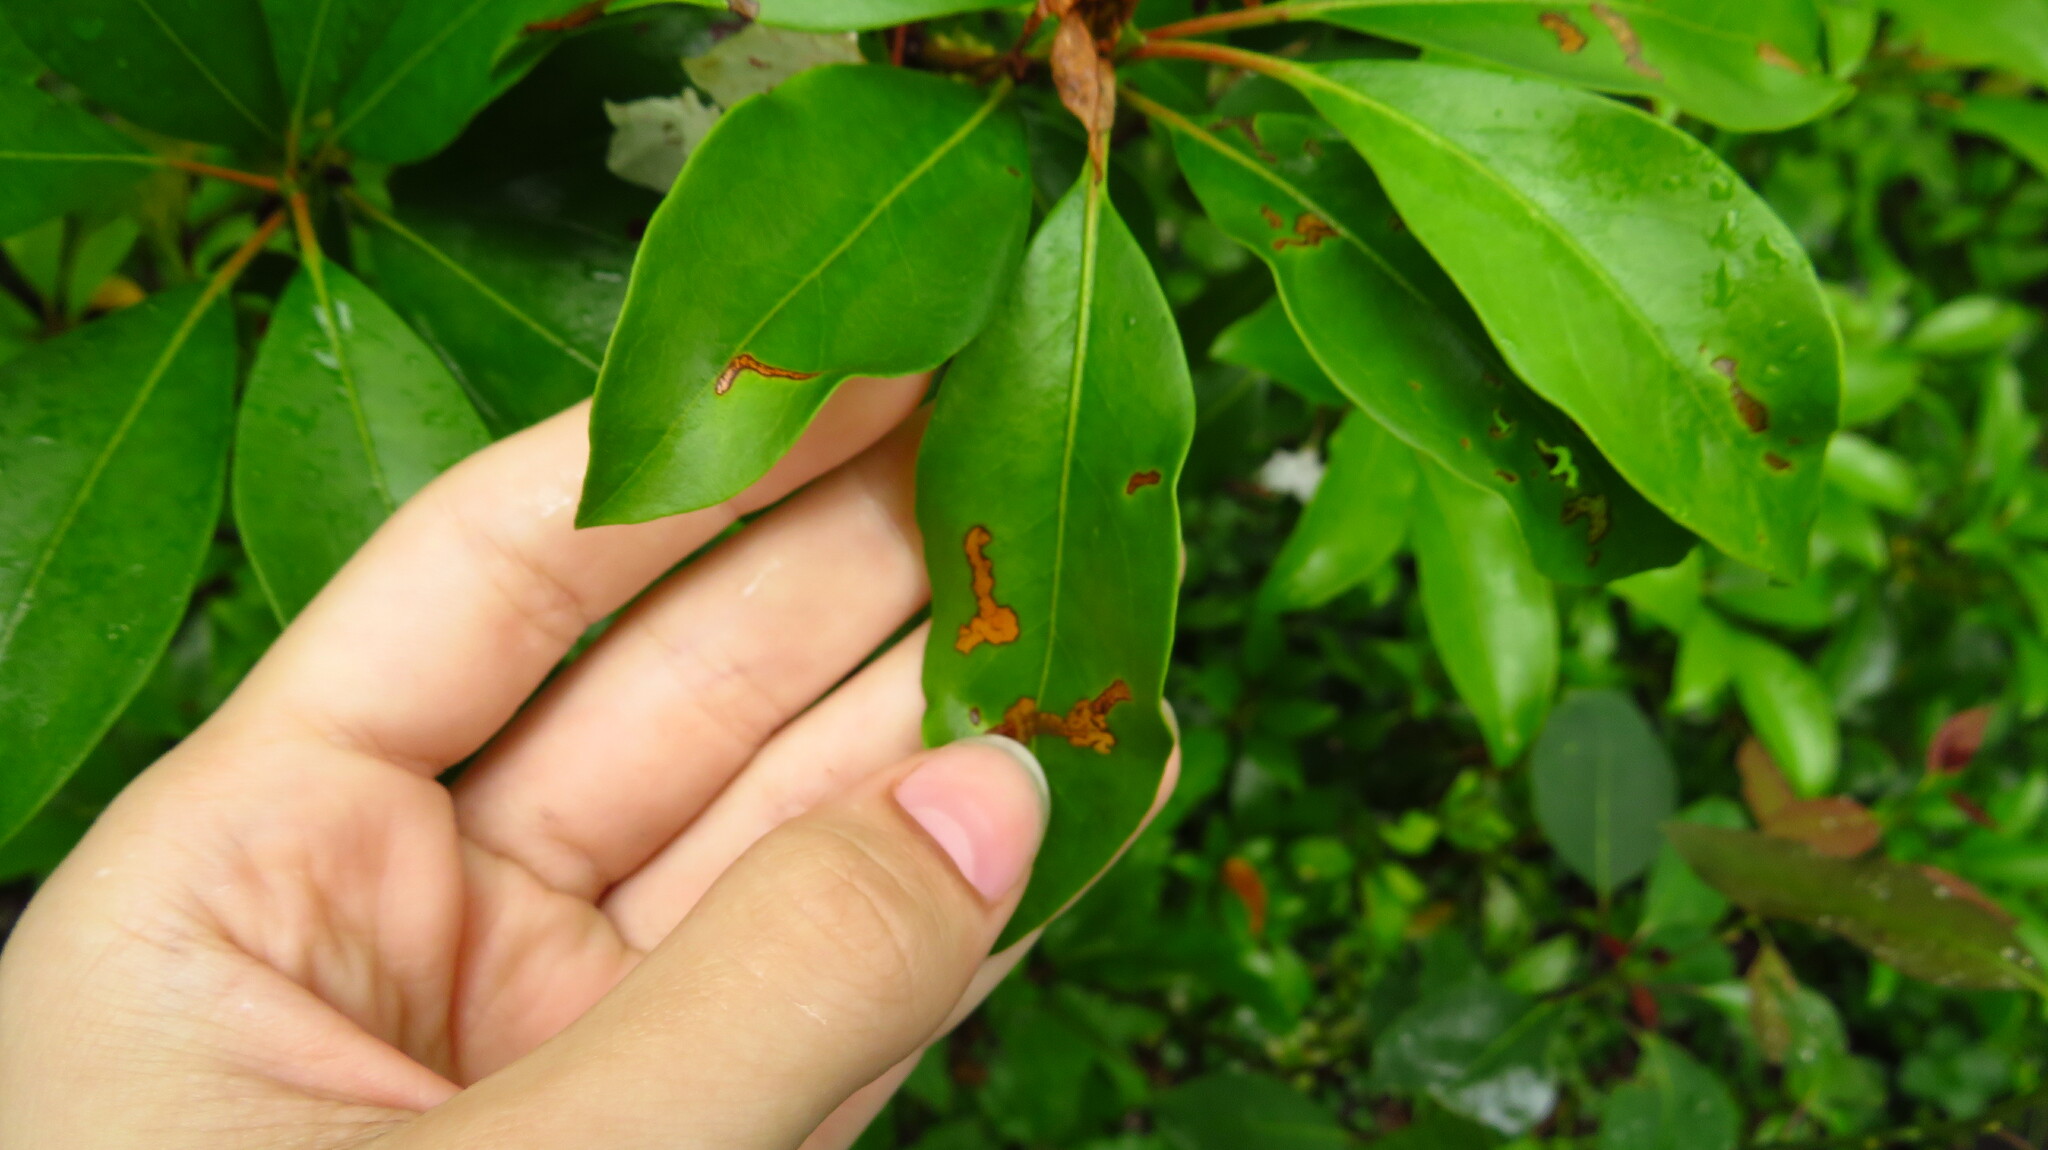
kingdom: Animalia
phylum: Arthropoda
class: Insecta
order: Coleoptera
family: Chrysomelidae
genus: Altica
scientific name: Altica kalmiae
